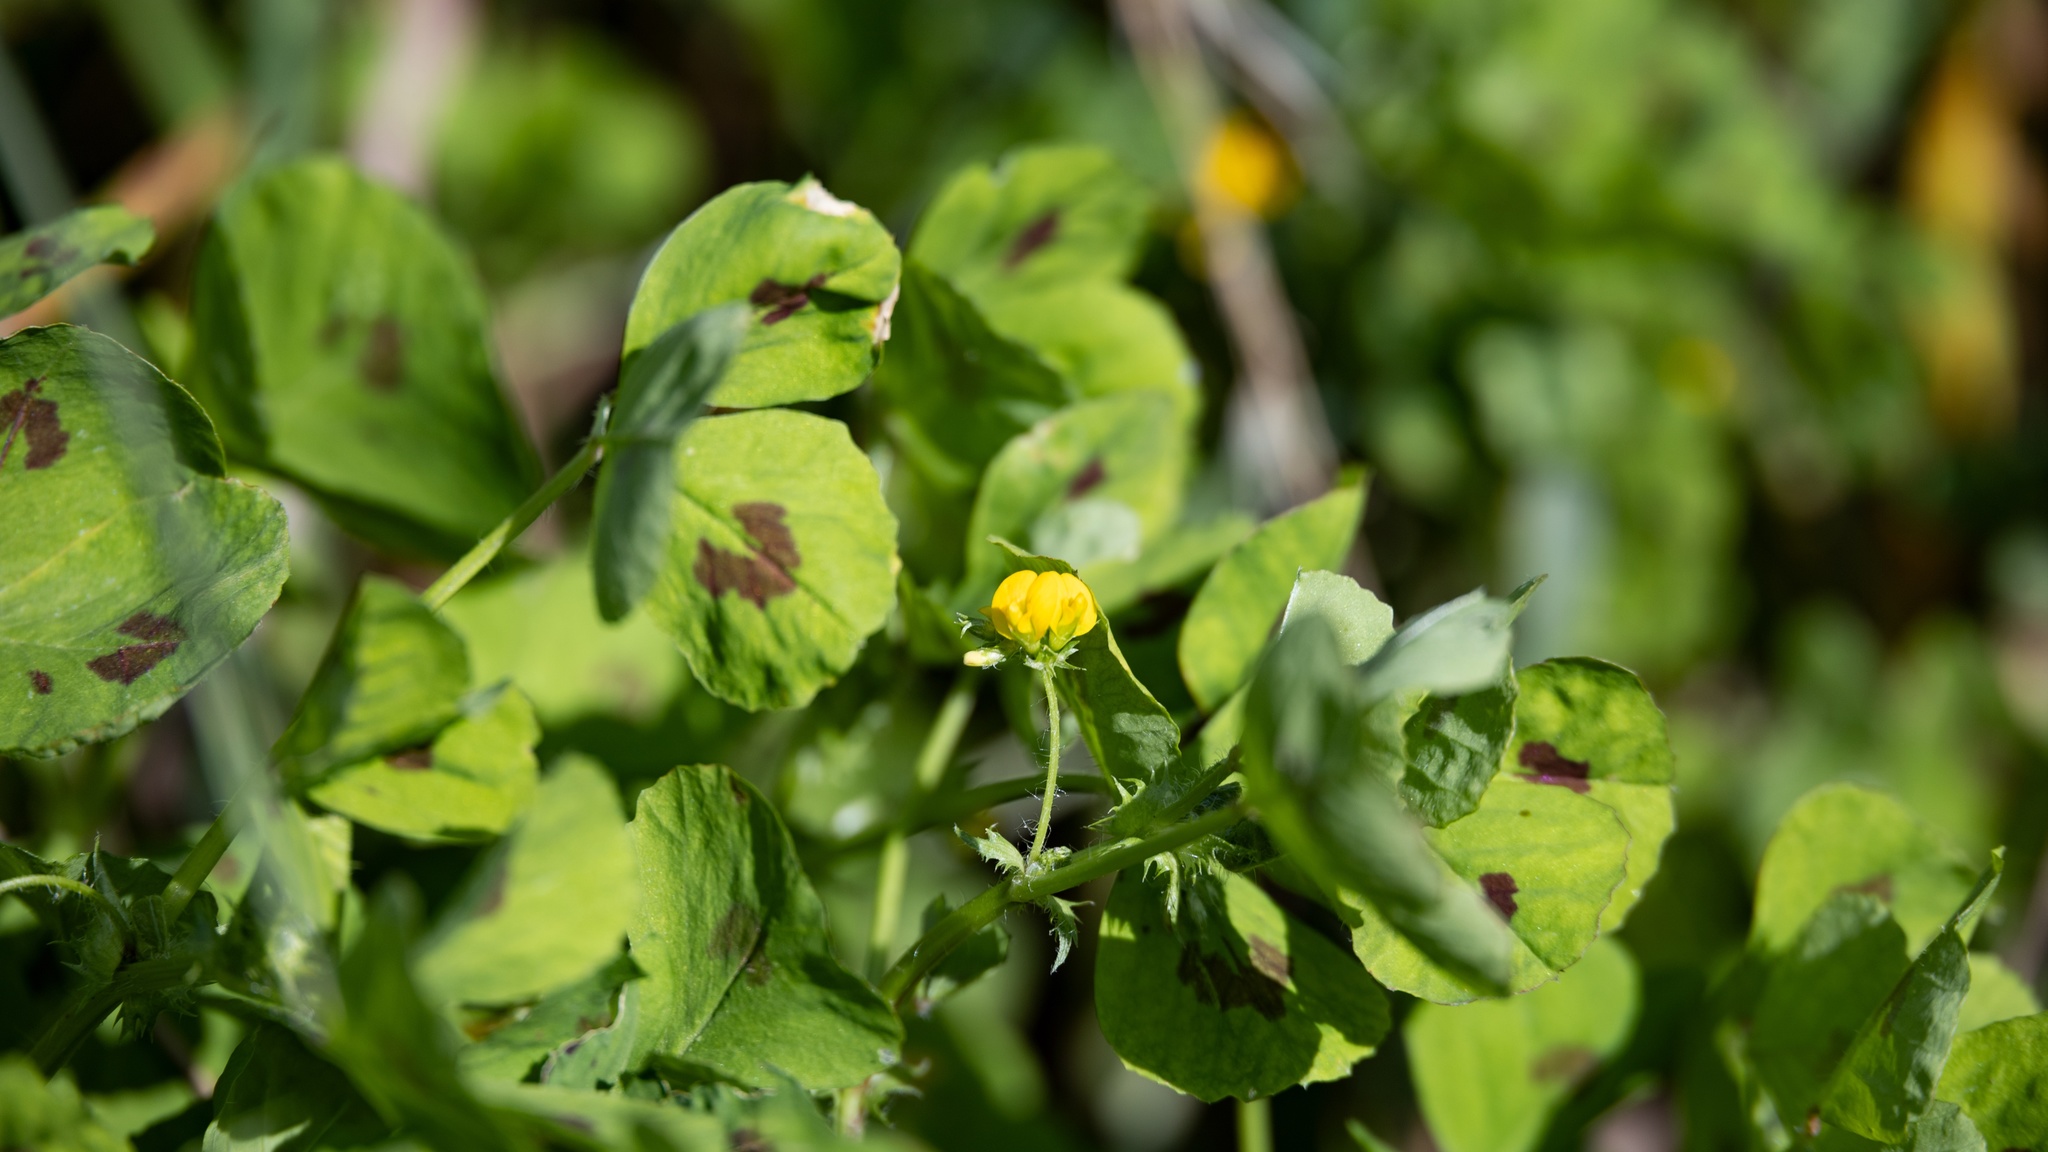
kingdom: Plantae
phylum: Tracheophyta
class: Magnoliopsida
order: Fabales
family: Fabaceae
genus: Medicago
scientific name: Medicago arabica
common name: Spotted medick
